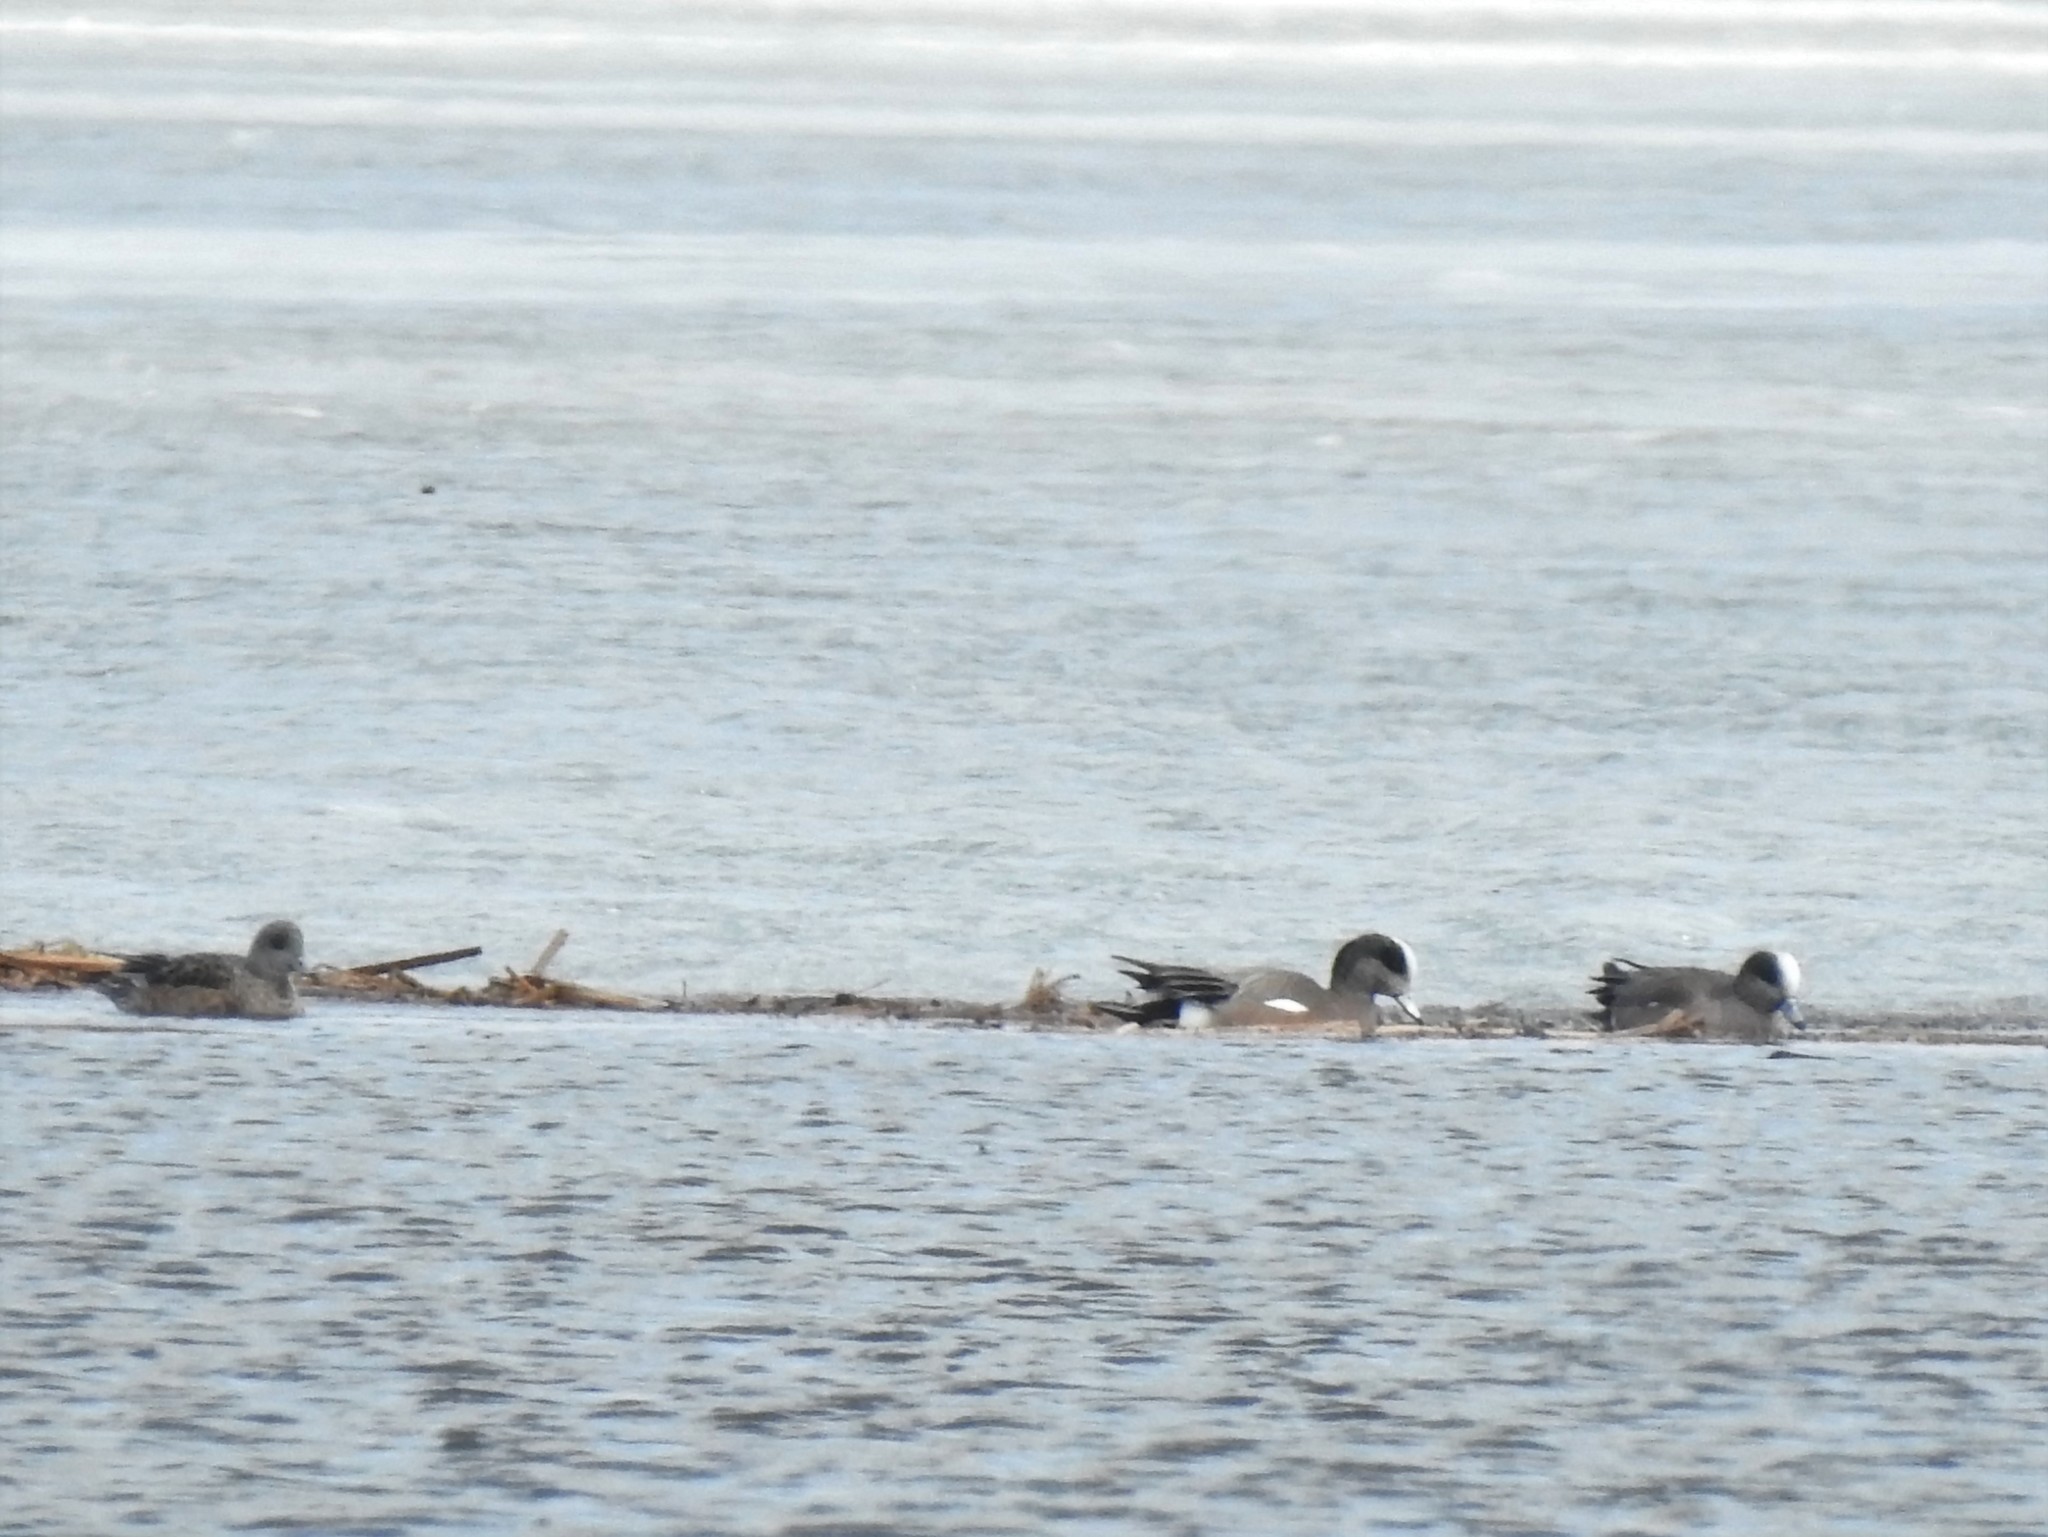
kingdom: Animalia
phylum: Chordata
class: Aves
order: Anseriformes
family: Anatidae
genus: Mareca
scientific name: Mareca americana
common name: American wigeon
